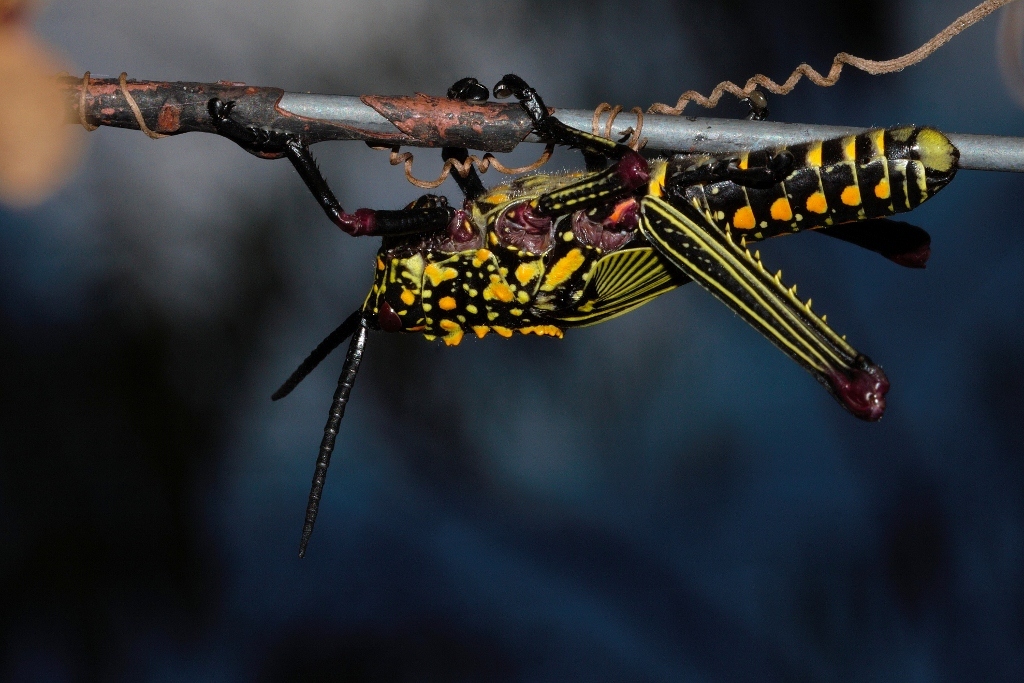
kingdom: Animalia
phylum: Arthropoda
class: Insecta
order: Orthoptera
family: Pyrgomorphidae
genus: Phymateus
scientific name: Phymateus viridipes
